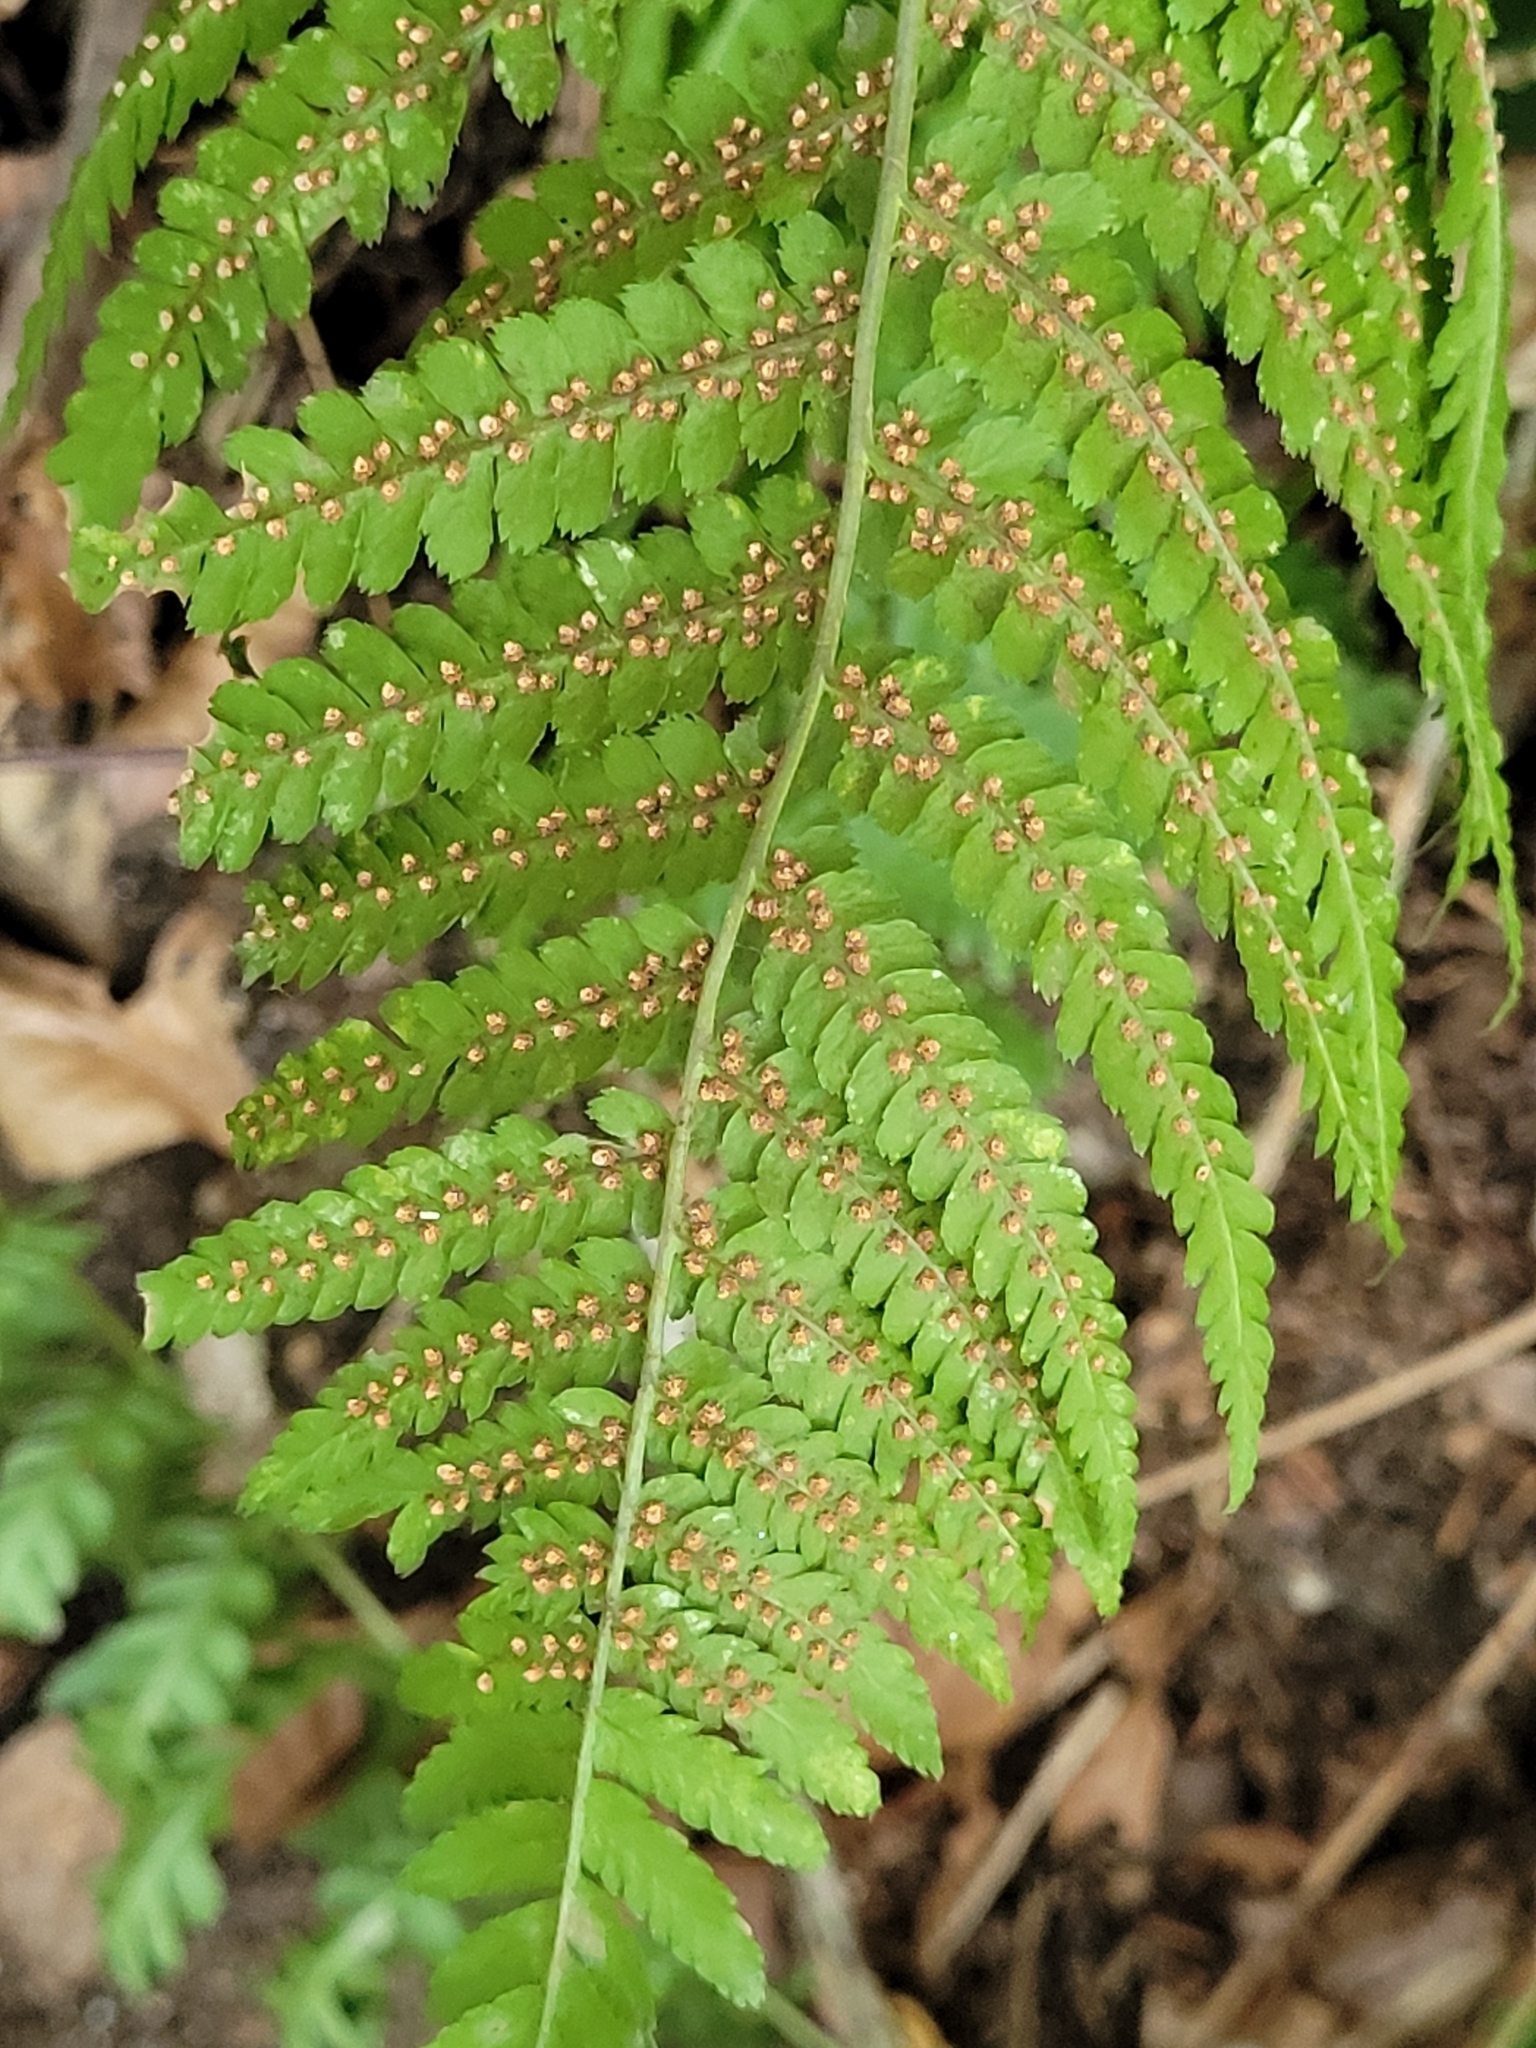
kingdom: Plantae
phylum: Tracheophyta
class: Polypodiopsida
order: Polypodiales
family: Dryopteridaceae
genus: Dryopteris
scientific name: Dryopteris filix-mas
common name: Male fern
